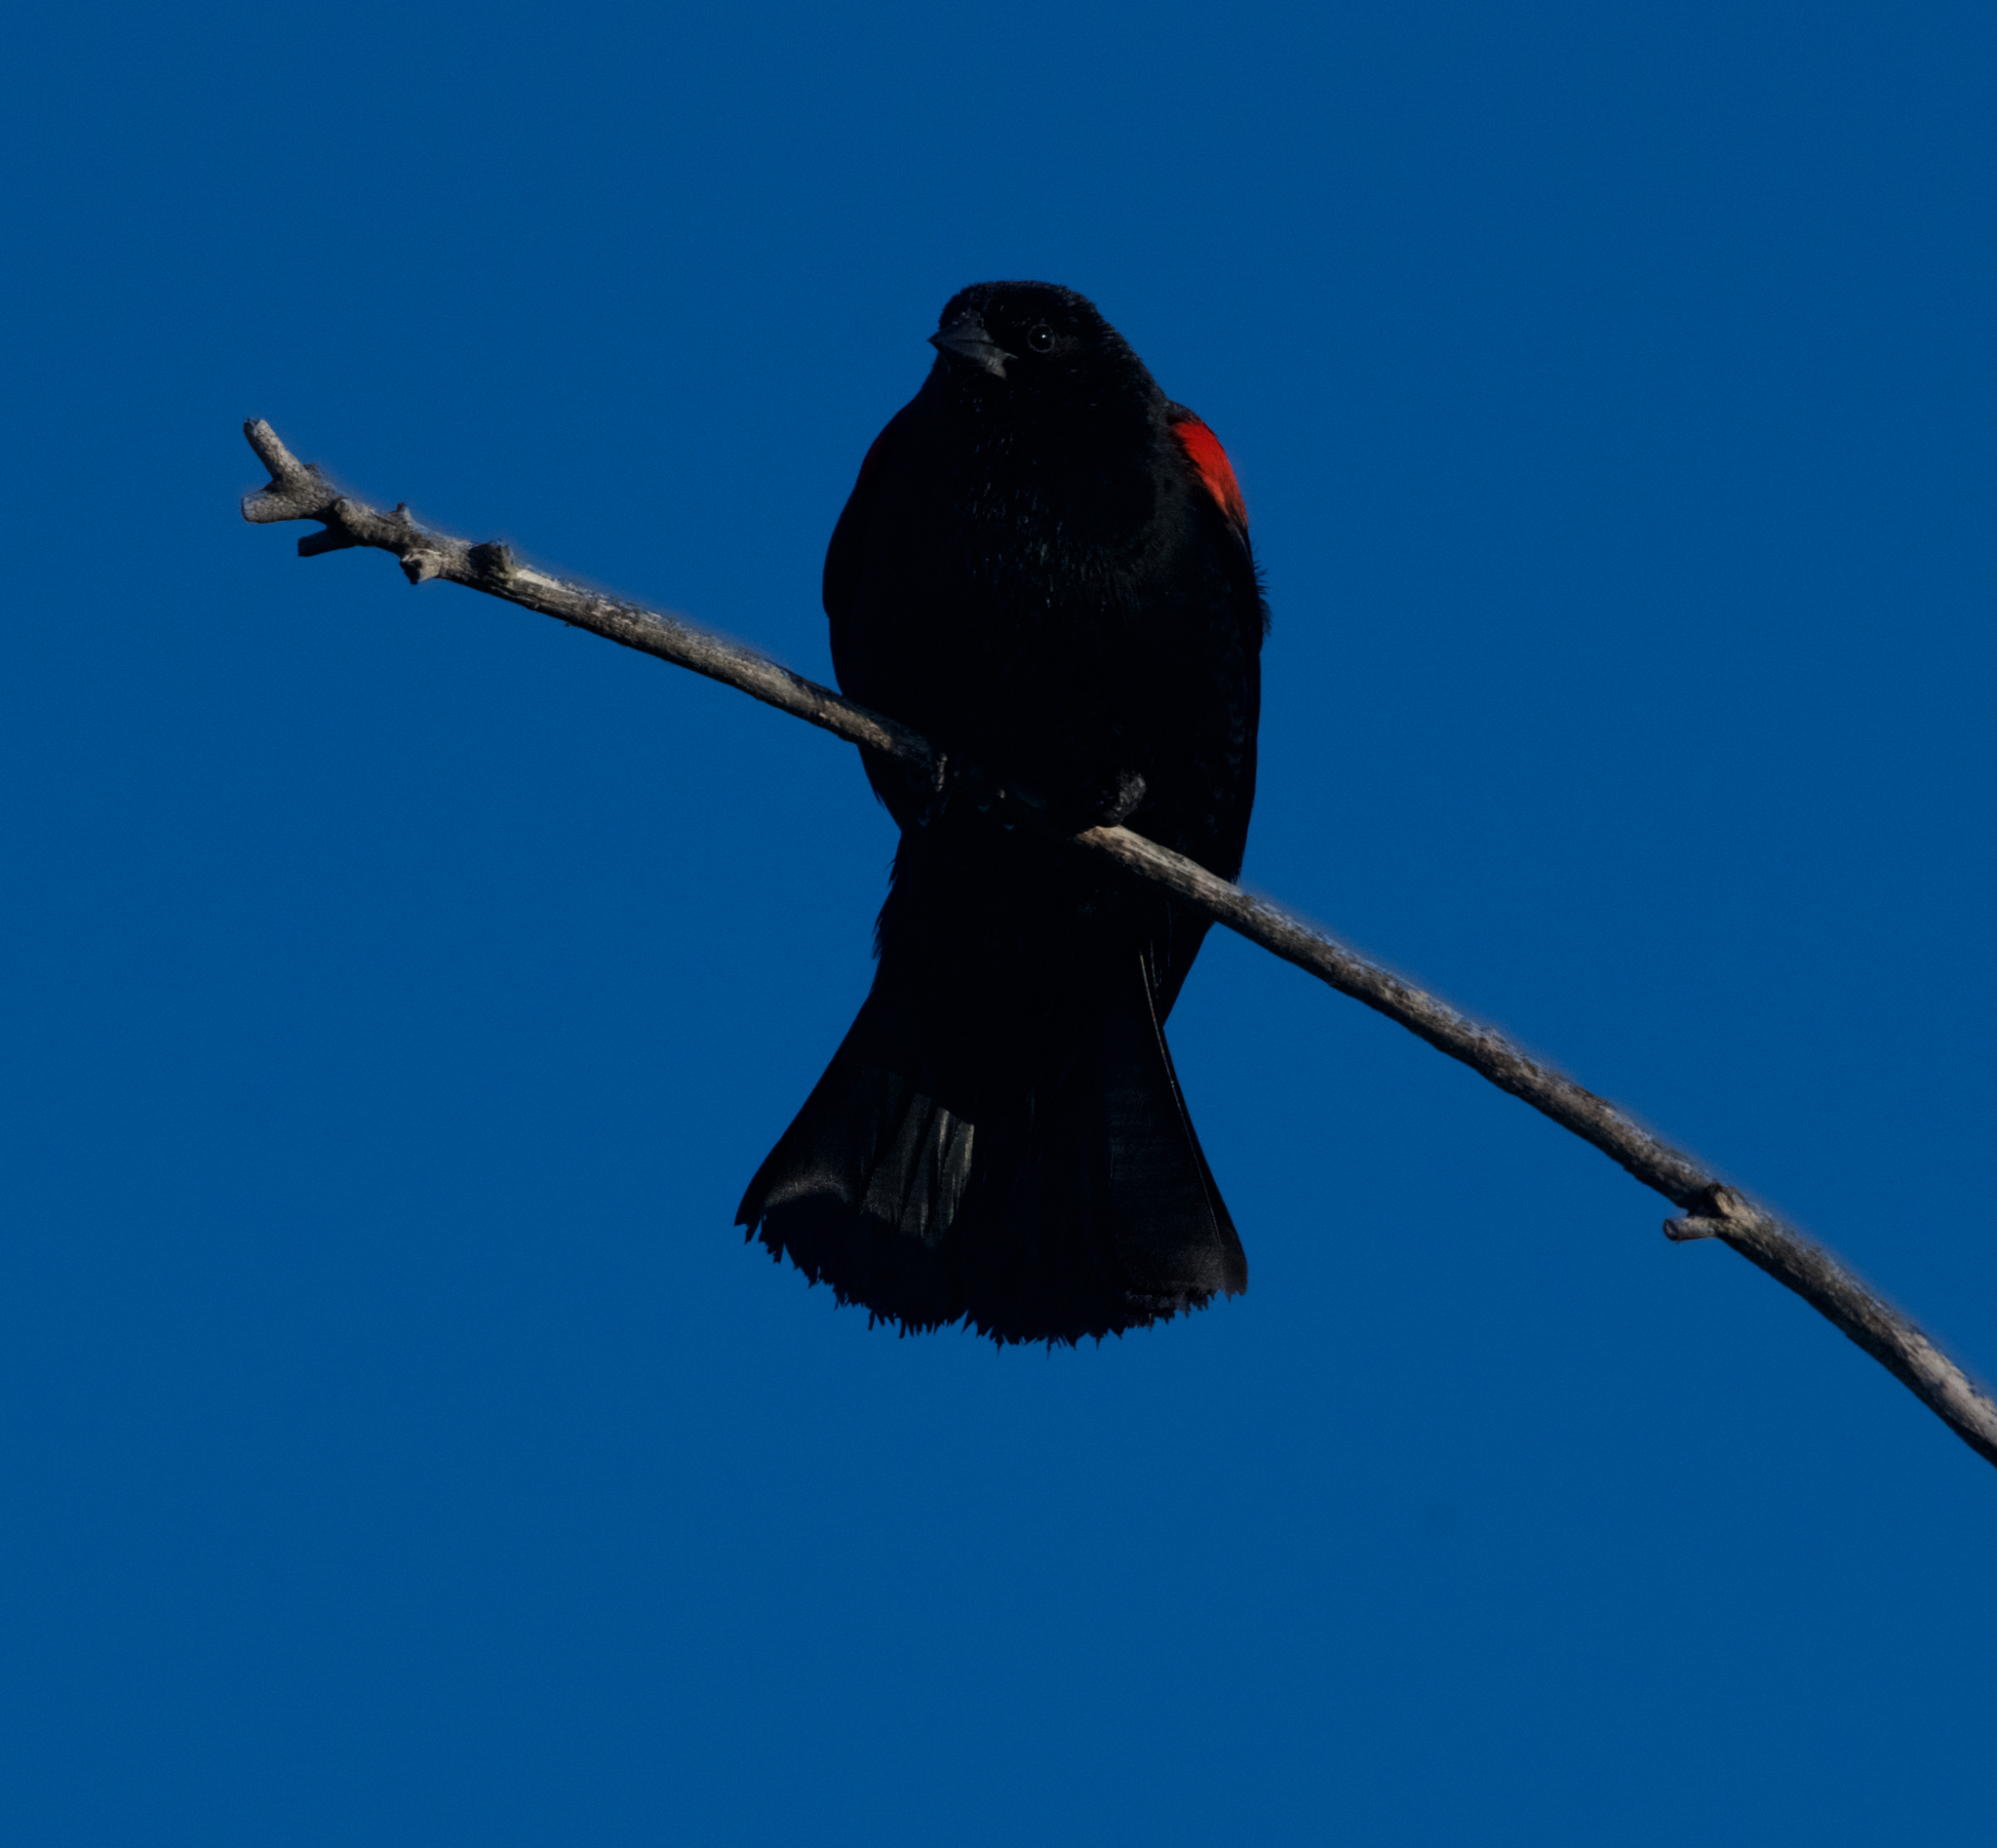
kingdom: Animalia
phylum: Chordata
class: Aves
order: Passeriformes
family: Icteridae
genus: Agelaius
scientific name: Agelaius phoeniceus
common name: Red-winged blackbird
